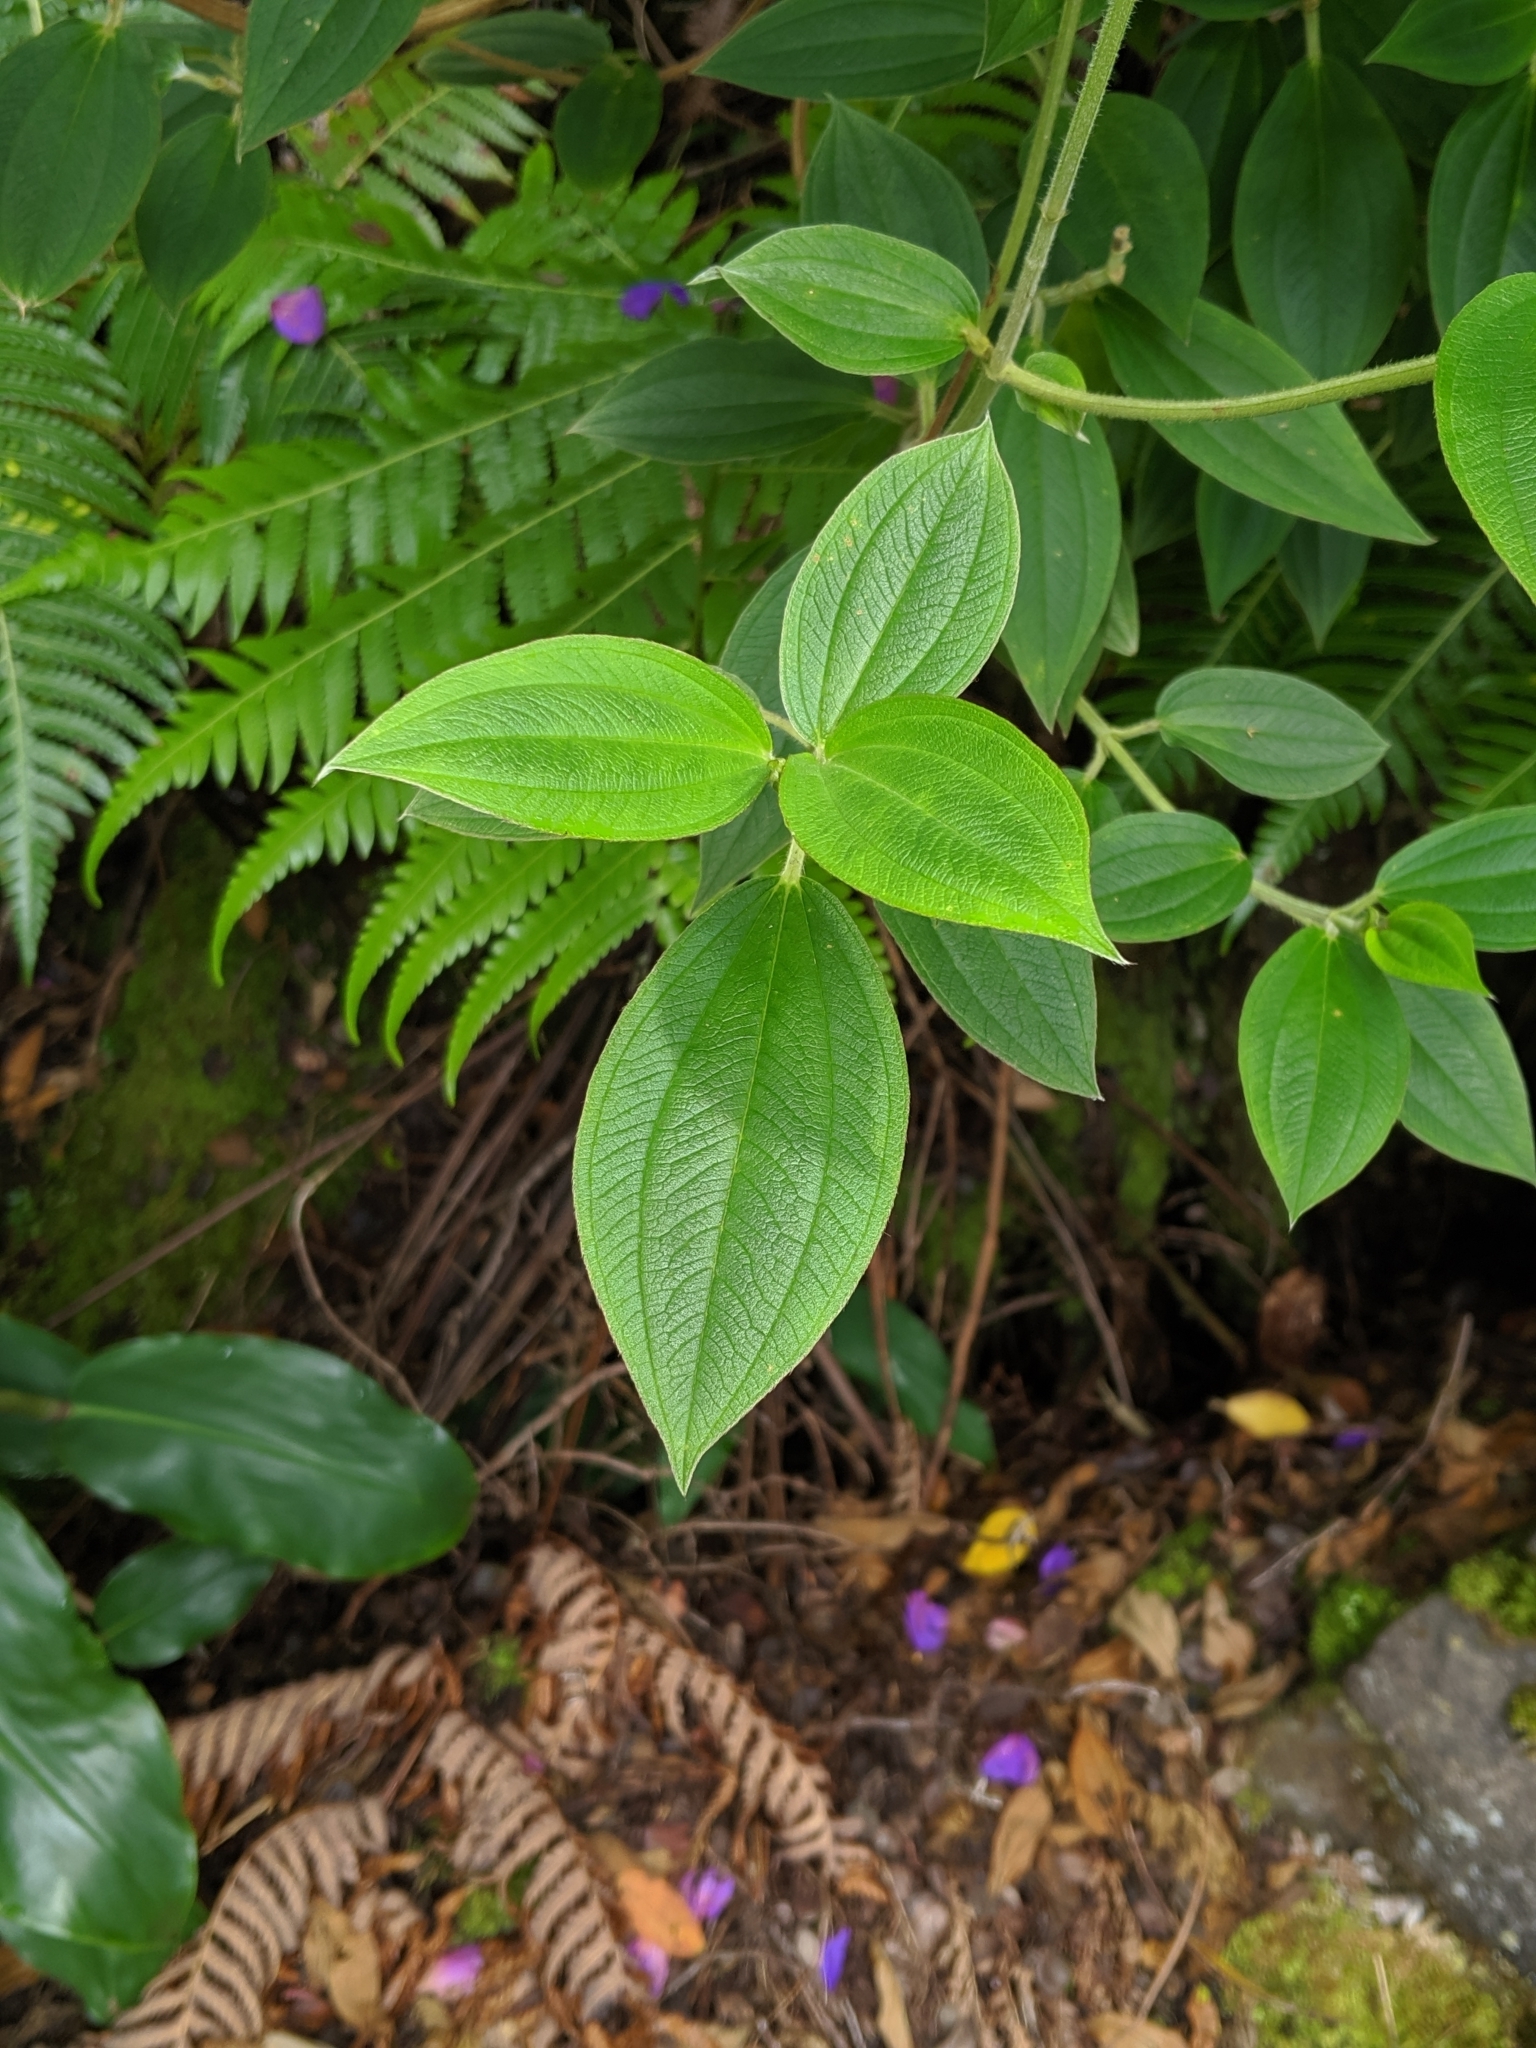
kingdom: Plantae
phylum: Tracheophyta
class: Magnoliopsida
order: Myrtales
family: Melastomataceae
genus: Pleroma
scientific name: Pleroma urvilleanum
